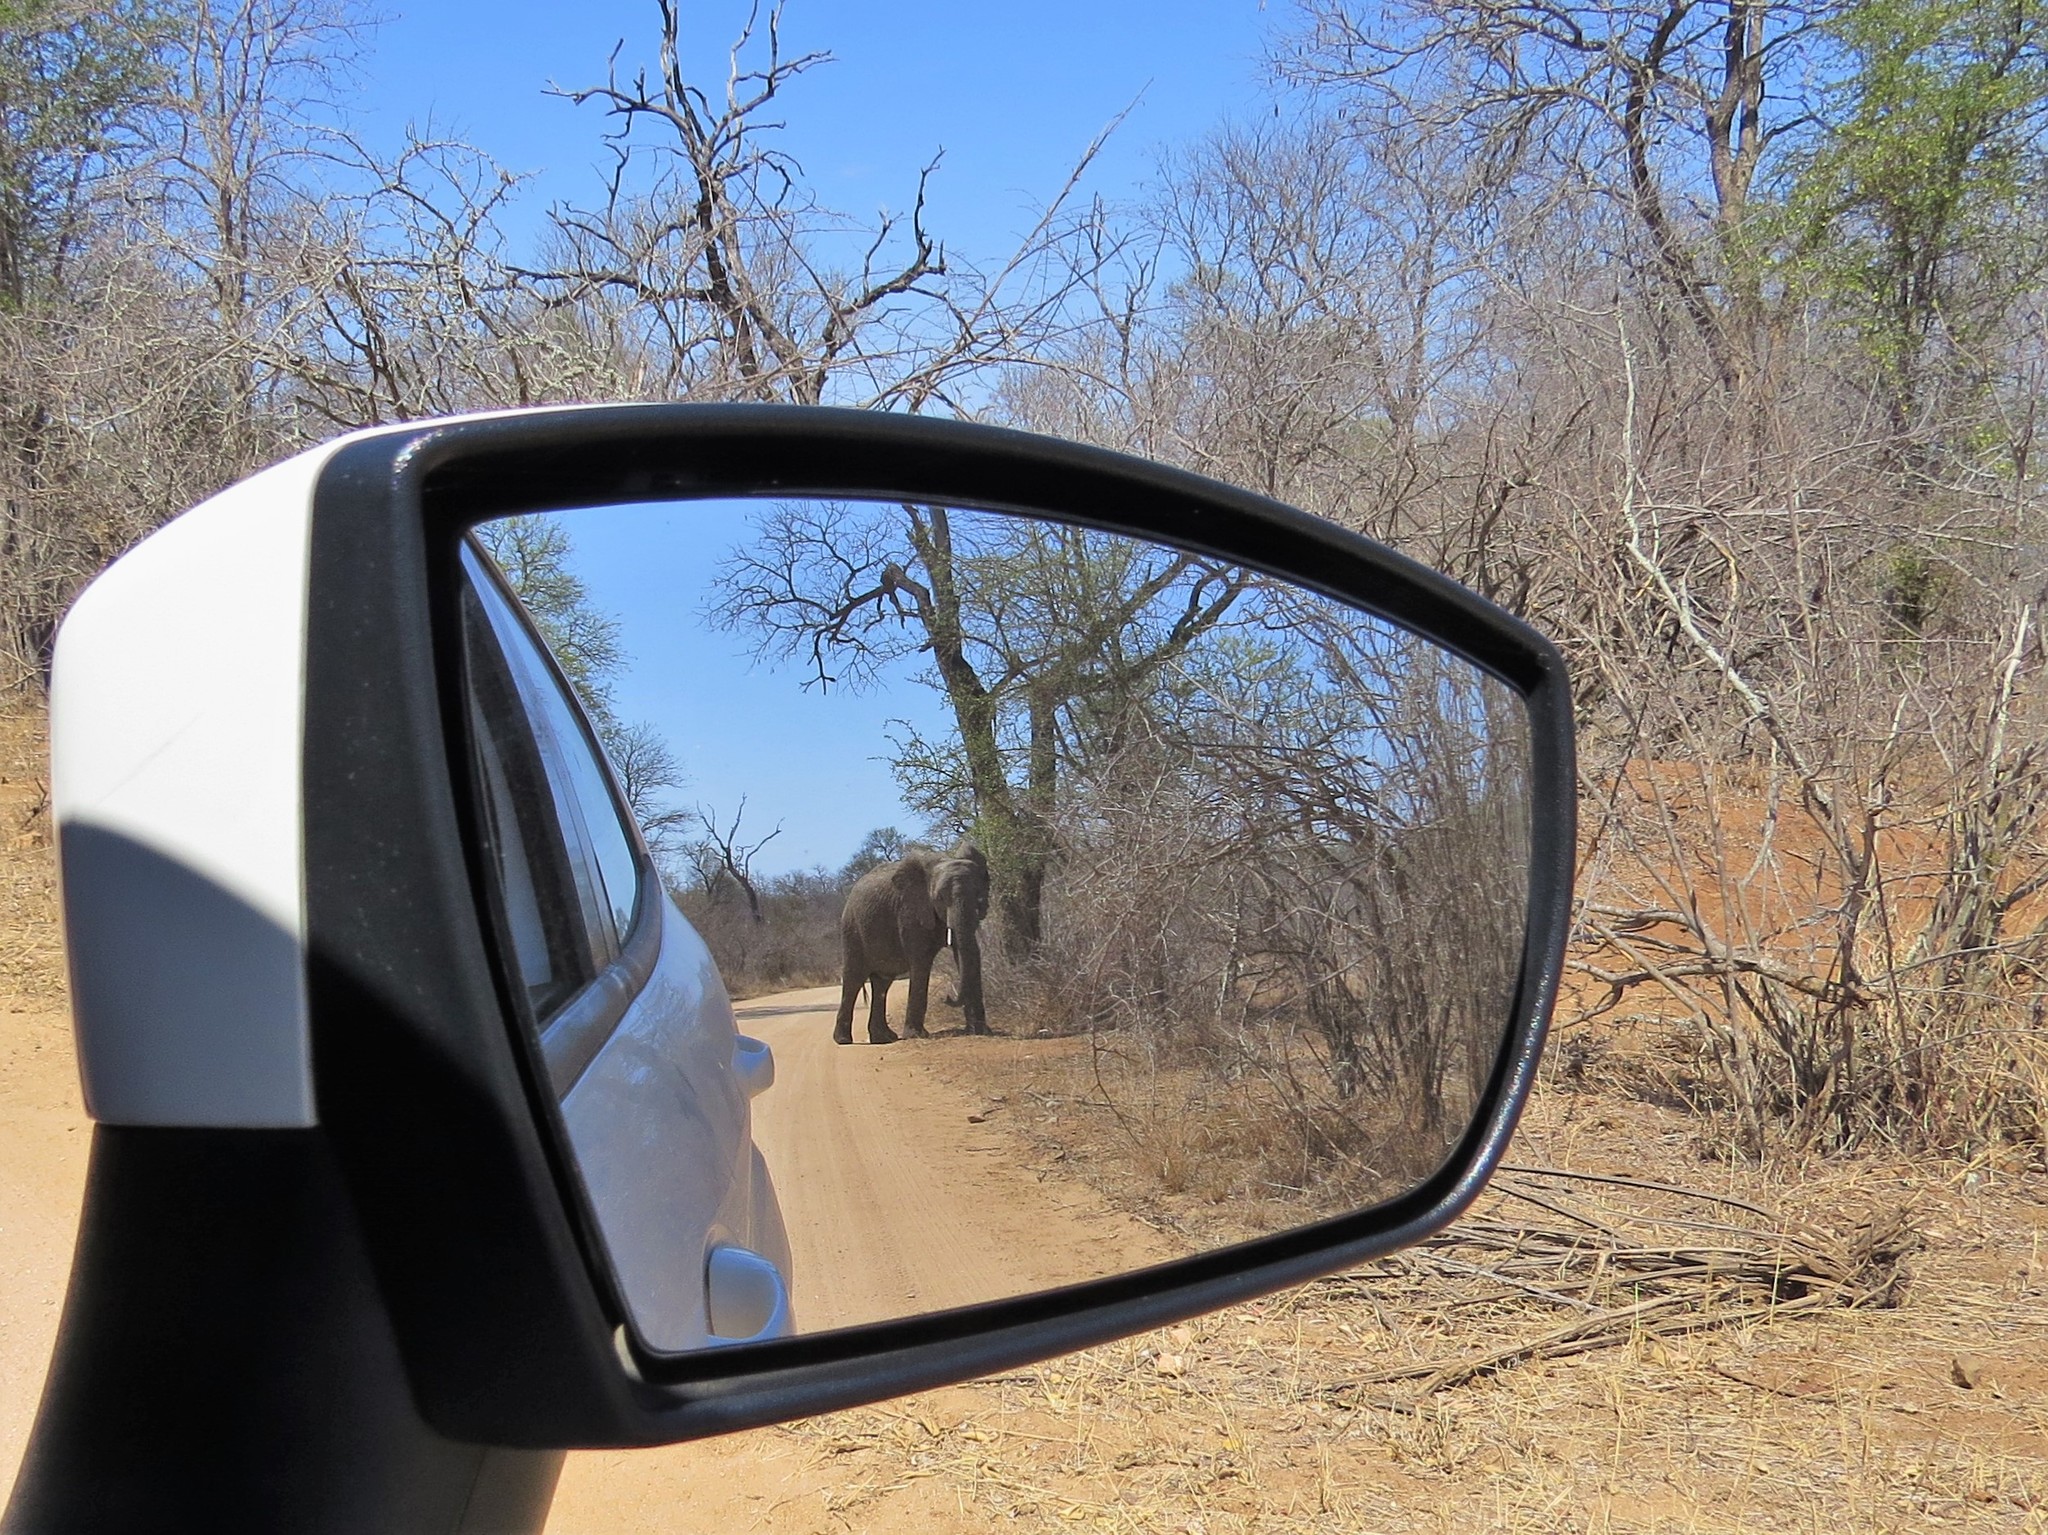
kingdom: Animalia
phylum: Chordata
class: Mammalia
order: Proboscidea
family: Elephantidae
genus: Loxodonta
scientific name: Loxodonta africana
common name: African elephant
